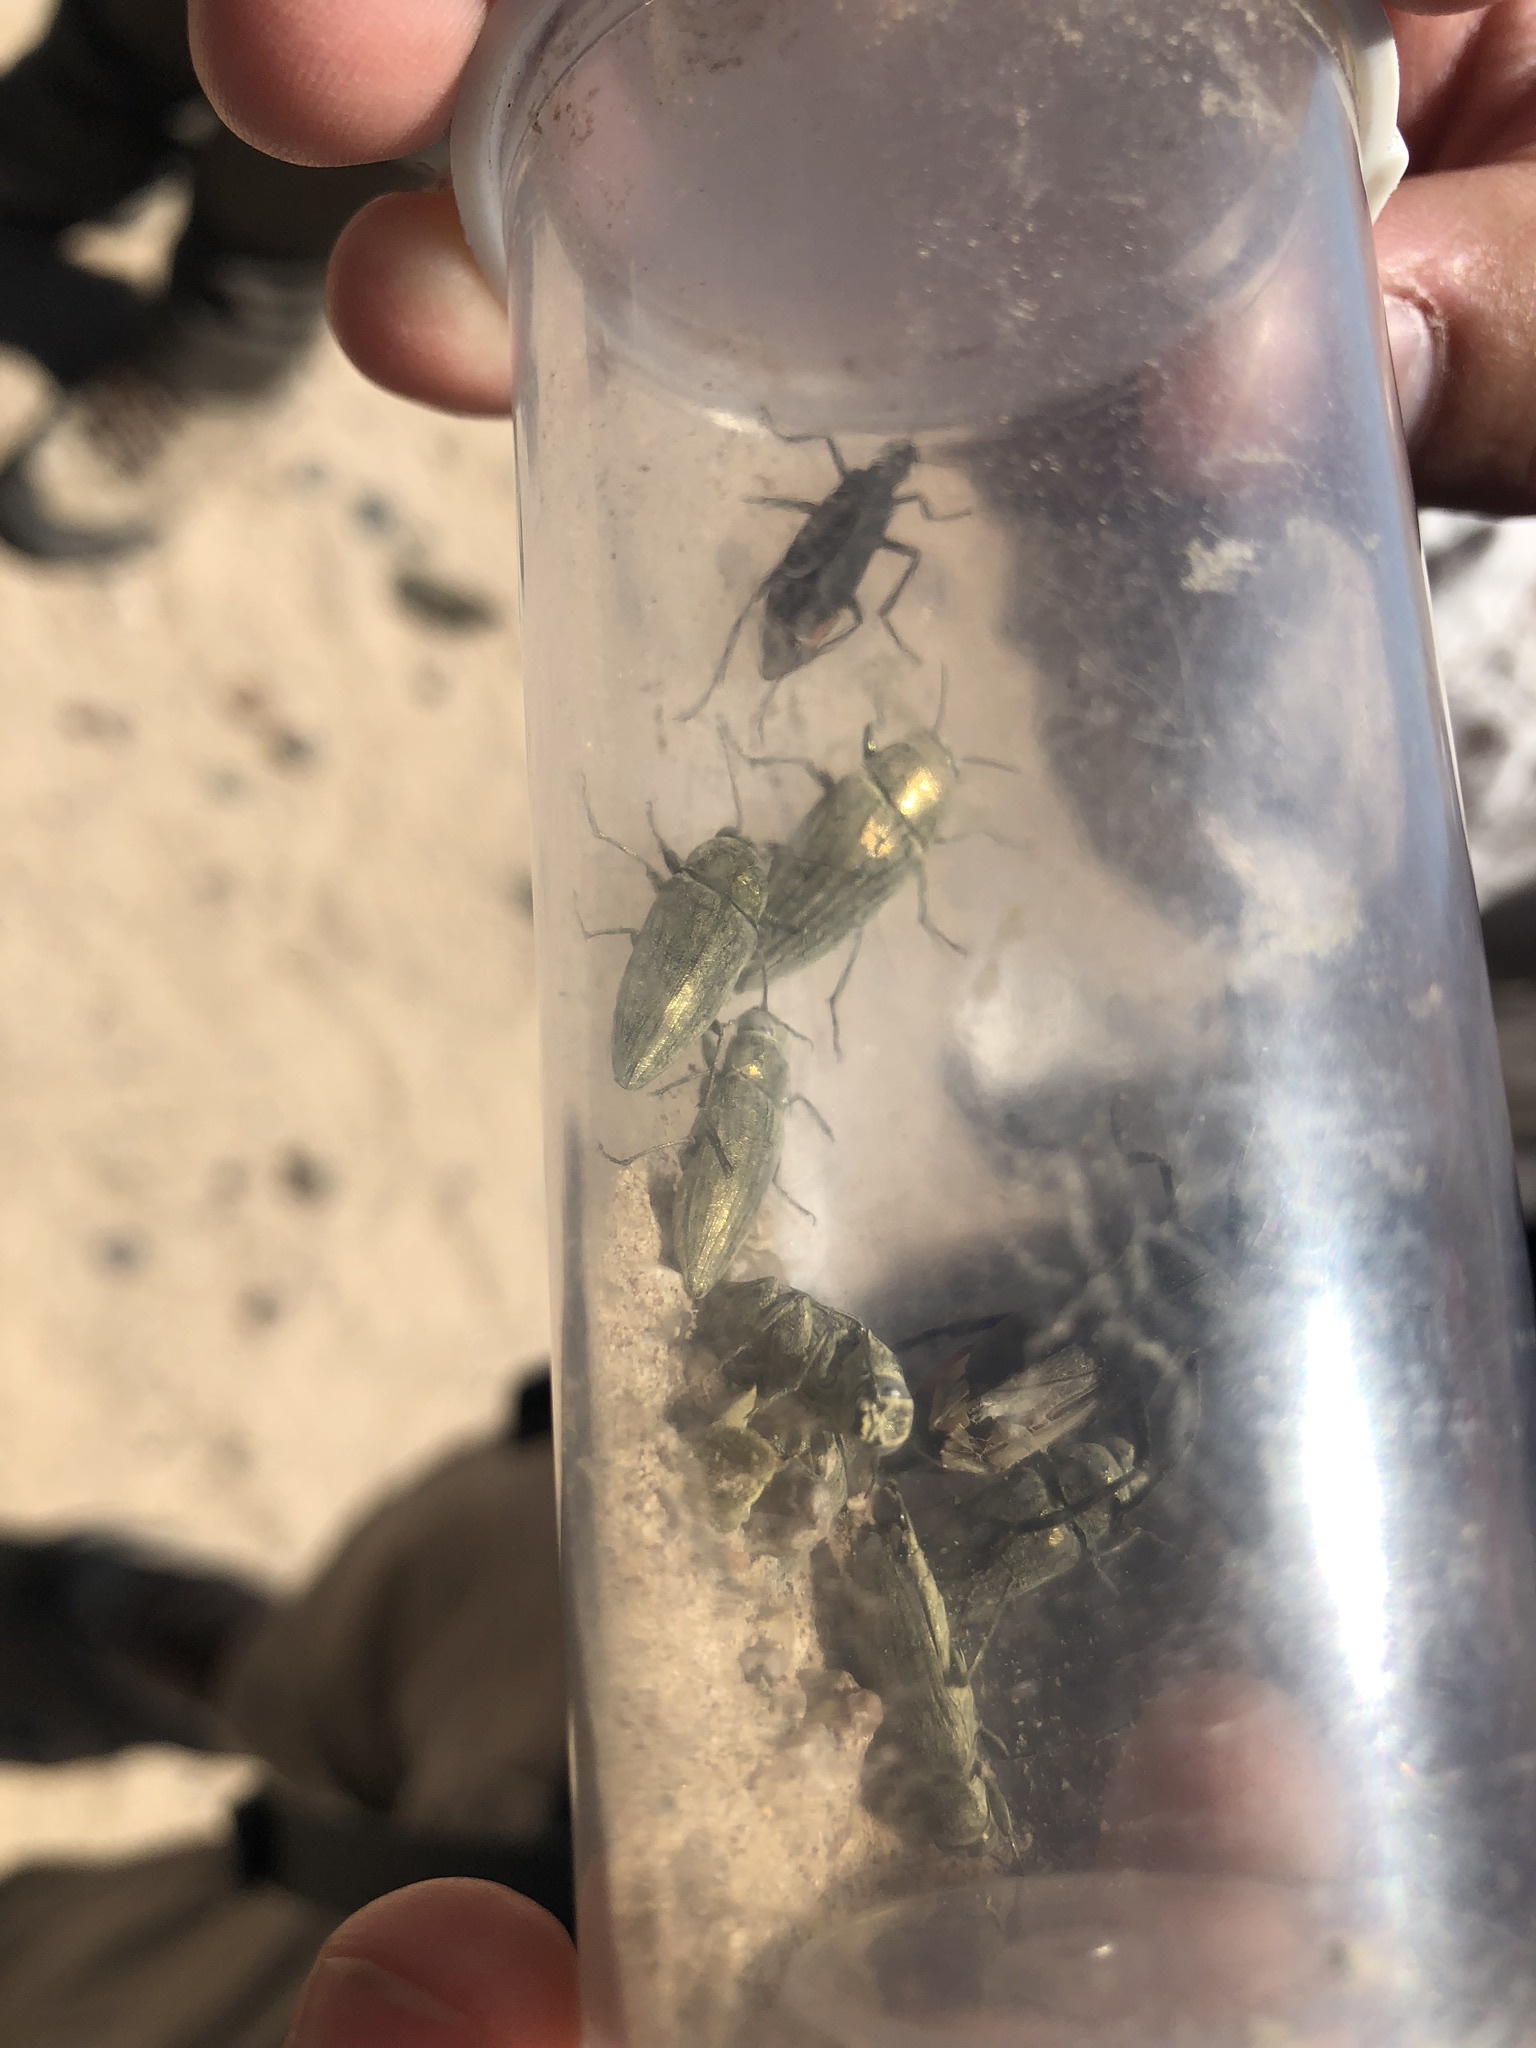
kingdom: Animalia
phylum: Arthropoda
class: Insecta
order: Coleoptera
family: Buprestidae
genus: Gyascutus
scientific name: Gyascutus dianae
